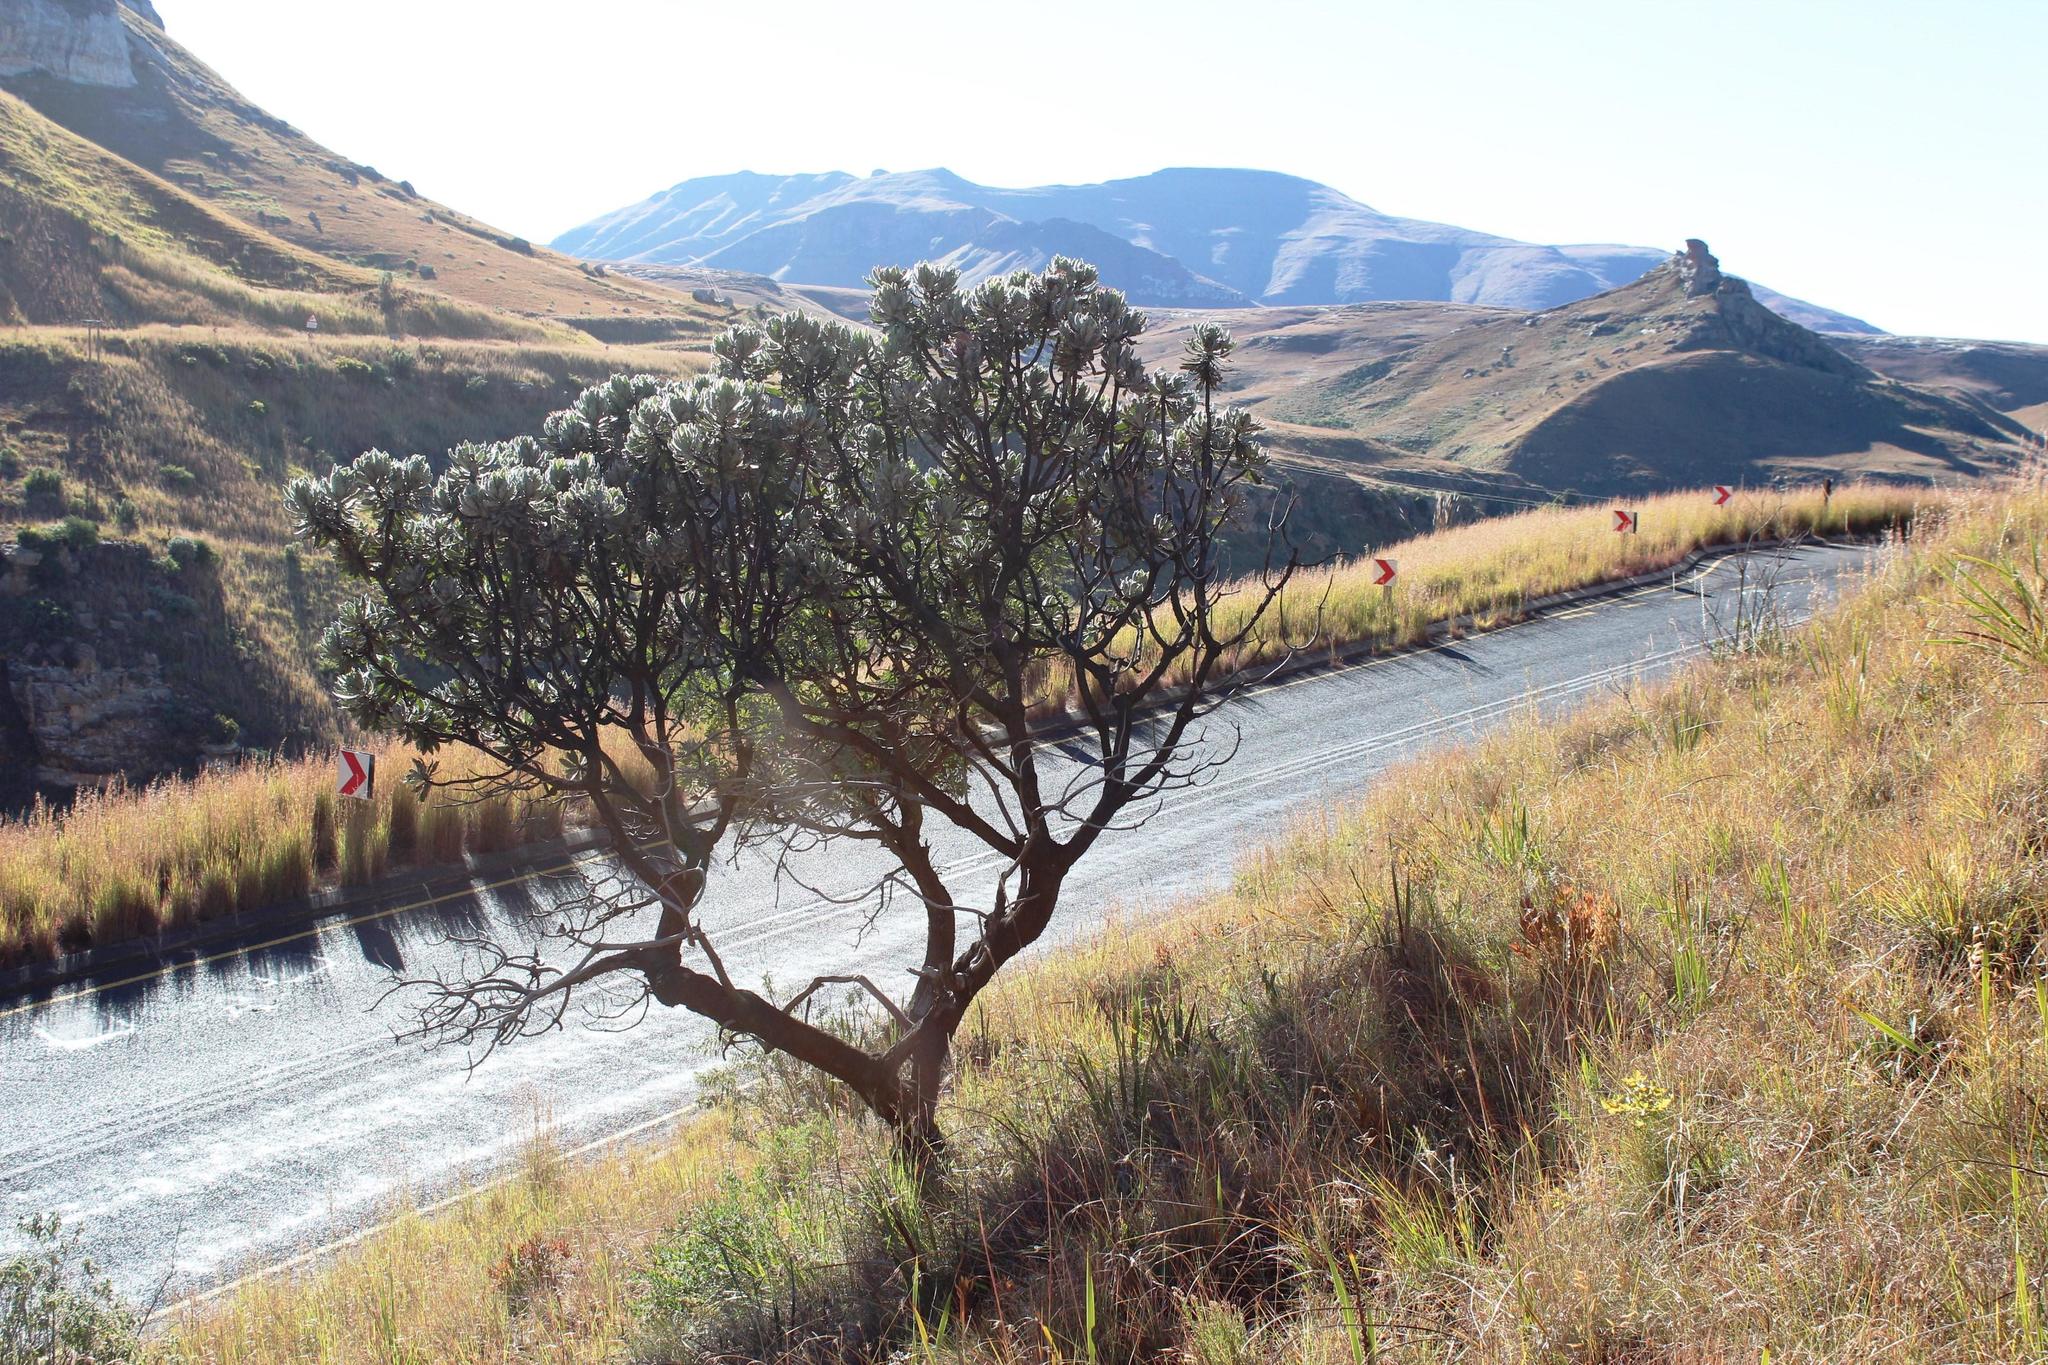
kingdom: Plantae
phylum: Tracheophyta
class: Magnoliopsida
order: Proteales
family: Proteaceae
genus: Protea
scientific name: Protea roupelliae
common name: Silver sugarbush
